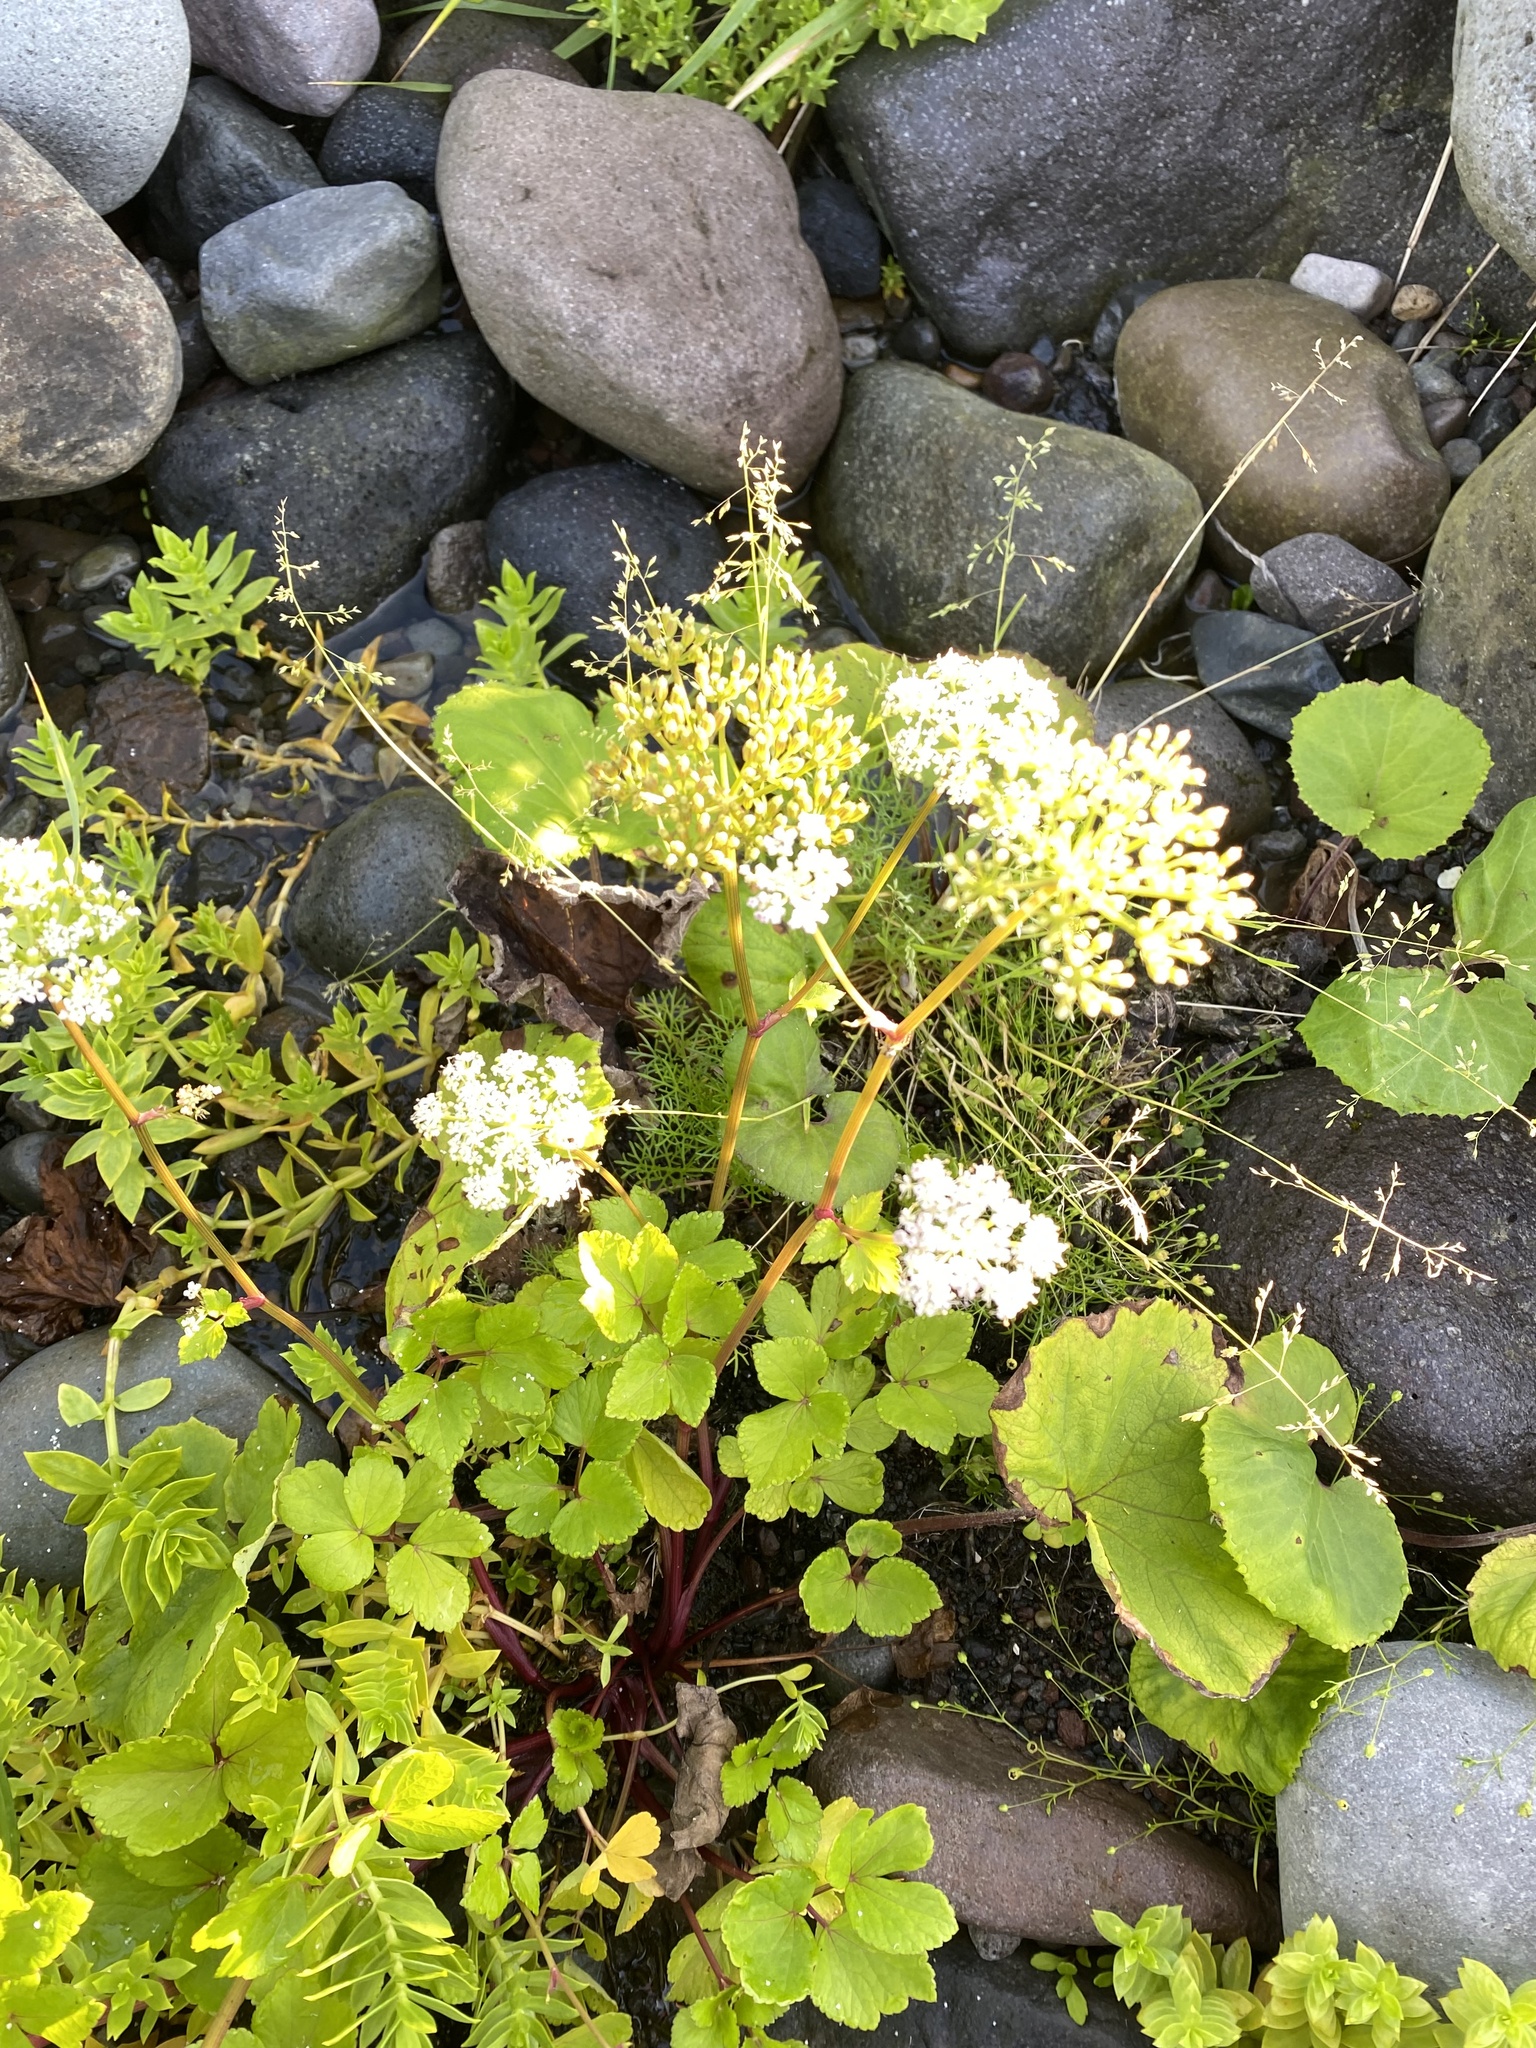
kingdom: Plantae
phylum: Tracheophyta
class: Magnoliopsida
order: Apiales
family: Apiaceae
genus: Ligusticum
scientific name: Ligusticum scothicum
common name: Beach lovage
